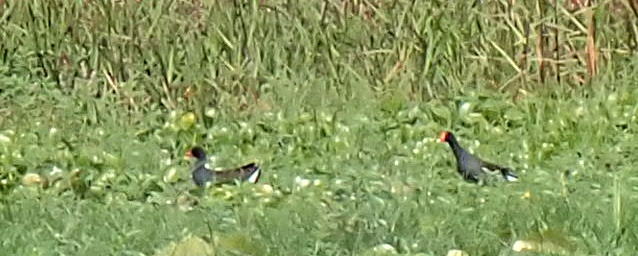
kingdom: Animalia
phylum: Chordata
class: Aves
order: Gruiformes
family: Rallidae
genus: Gallinula
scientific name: Gallinula chloropus
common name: Common moorhen
